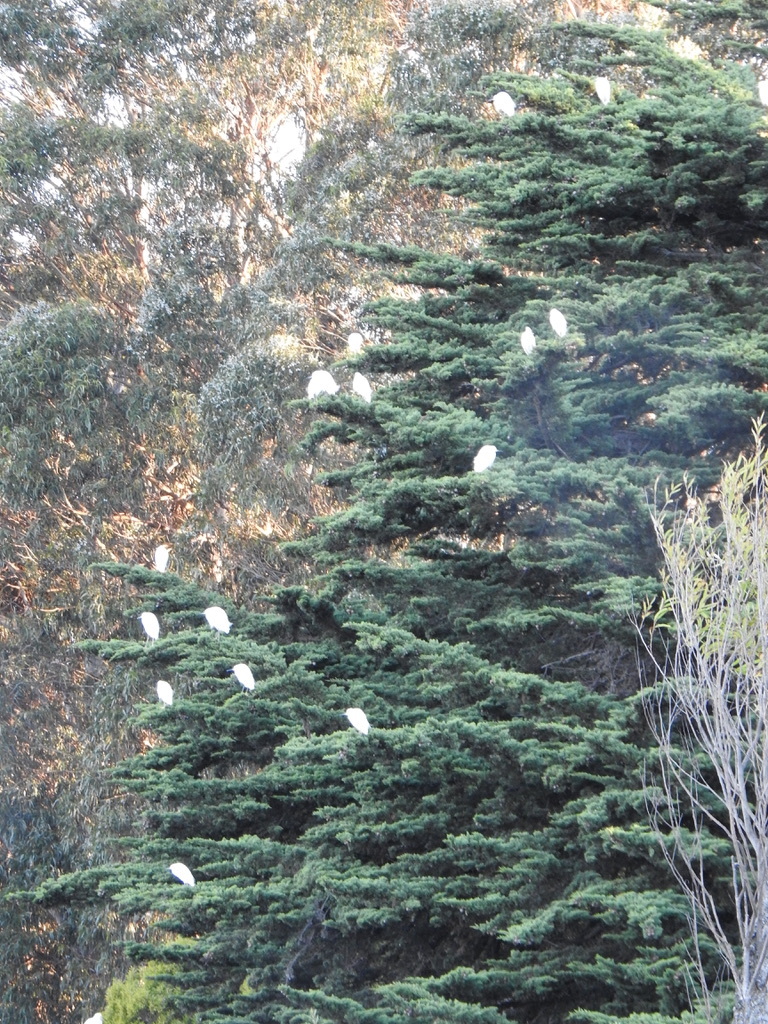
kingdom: Animalia
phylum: Chordata
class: Aves
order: Pelecaniformes
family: Ardeidae
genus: Egretta
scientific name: Egretta thula
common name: Snowy egret
